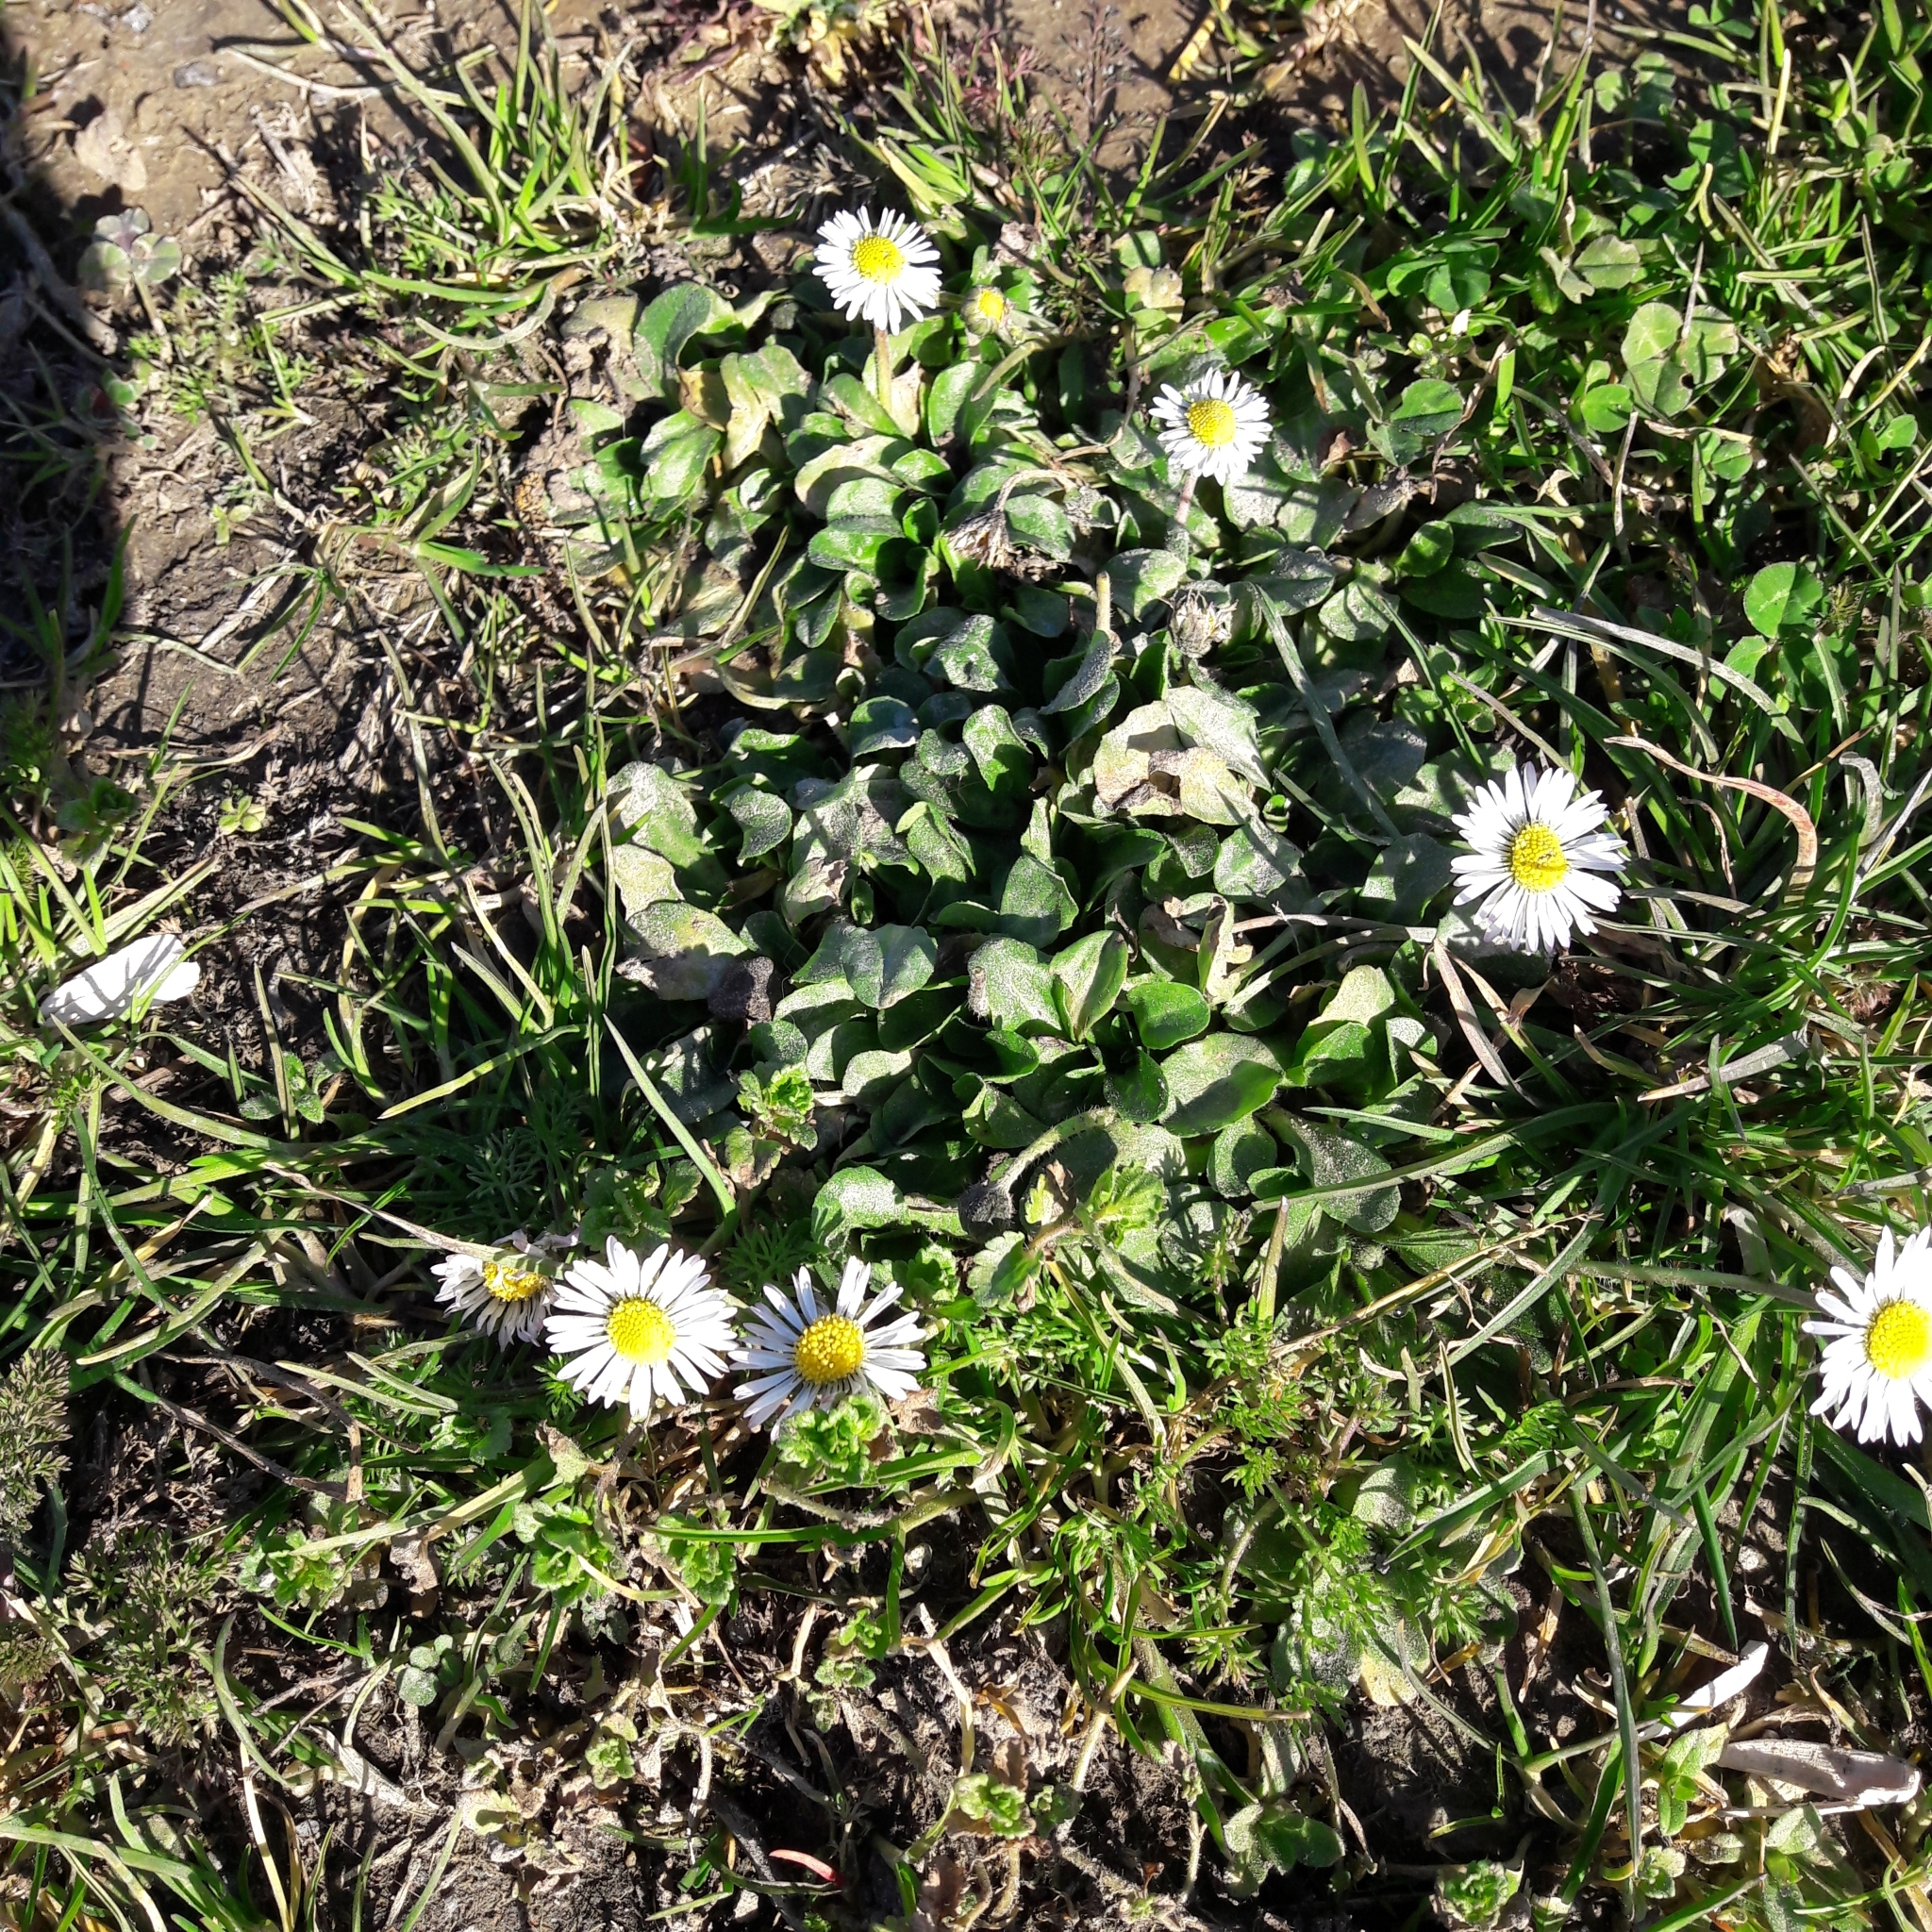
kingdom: Plantae
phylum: Tracheophyta
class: Magnoliopsida
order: Asterales
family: Asteraceae
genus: Bellis
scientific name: Bellis perennis
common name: Lawndaisy
